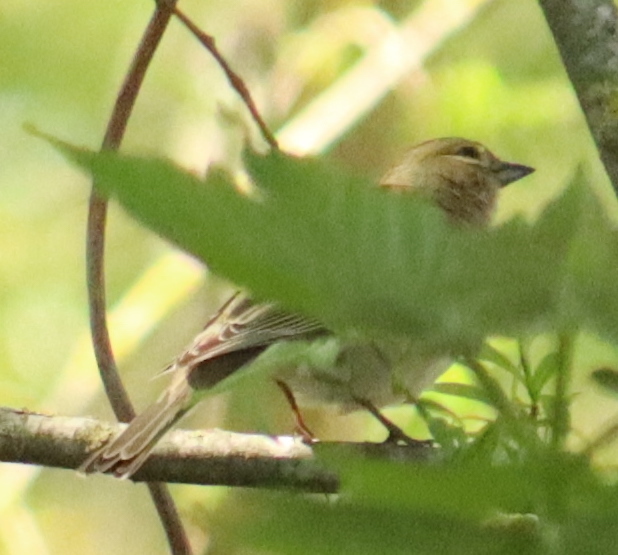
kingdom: Animalia
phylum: Chordata
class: Aves
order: Passeriformes
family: Fringillidae
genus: Fringilla
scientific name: Fringilla coelebs
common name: Common chaffinch
